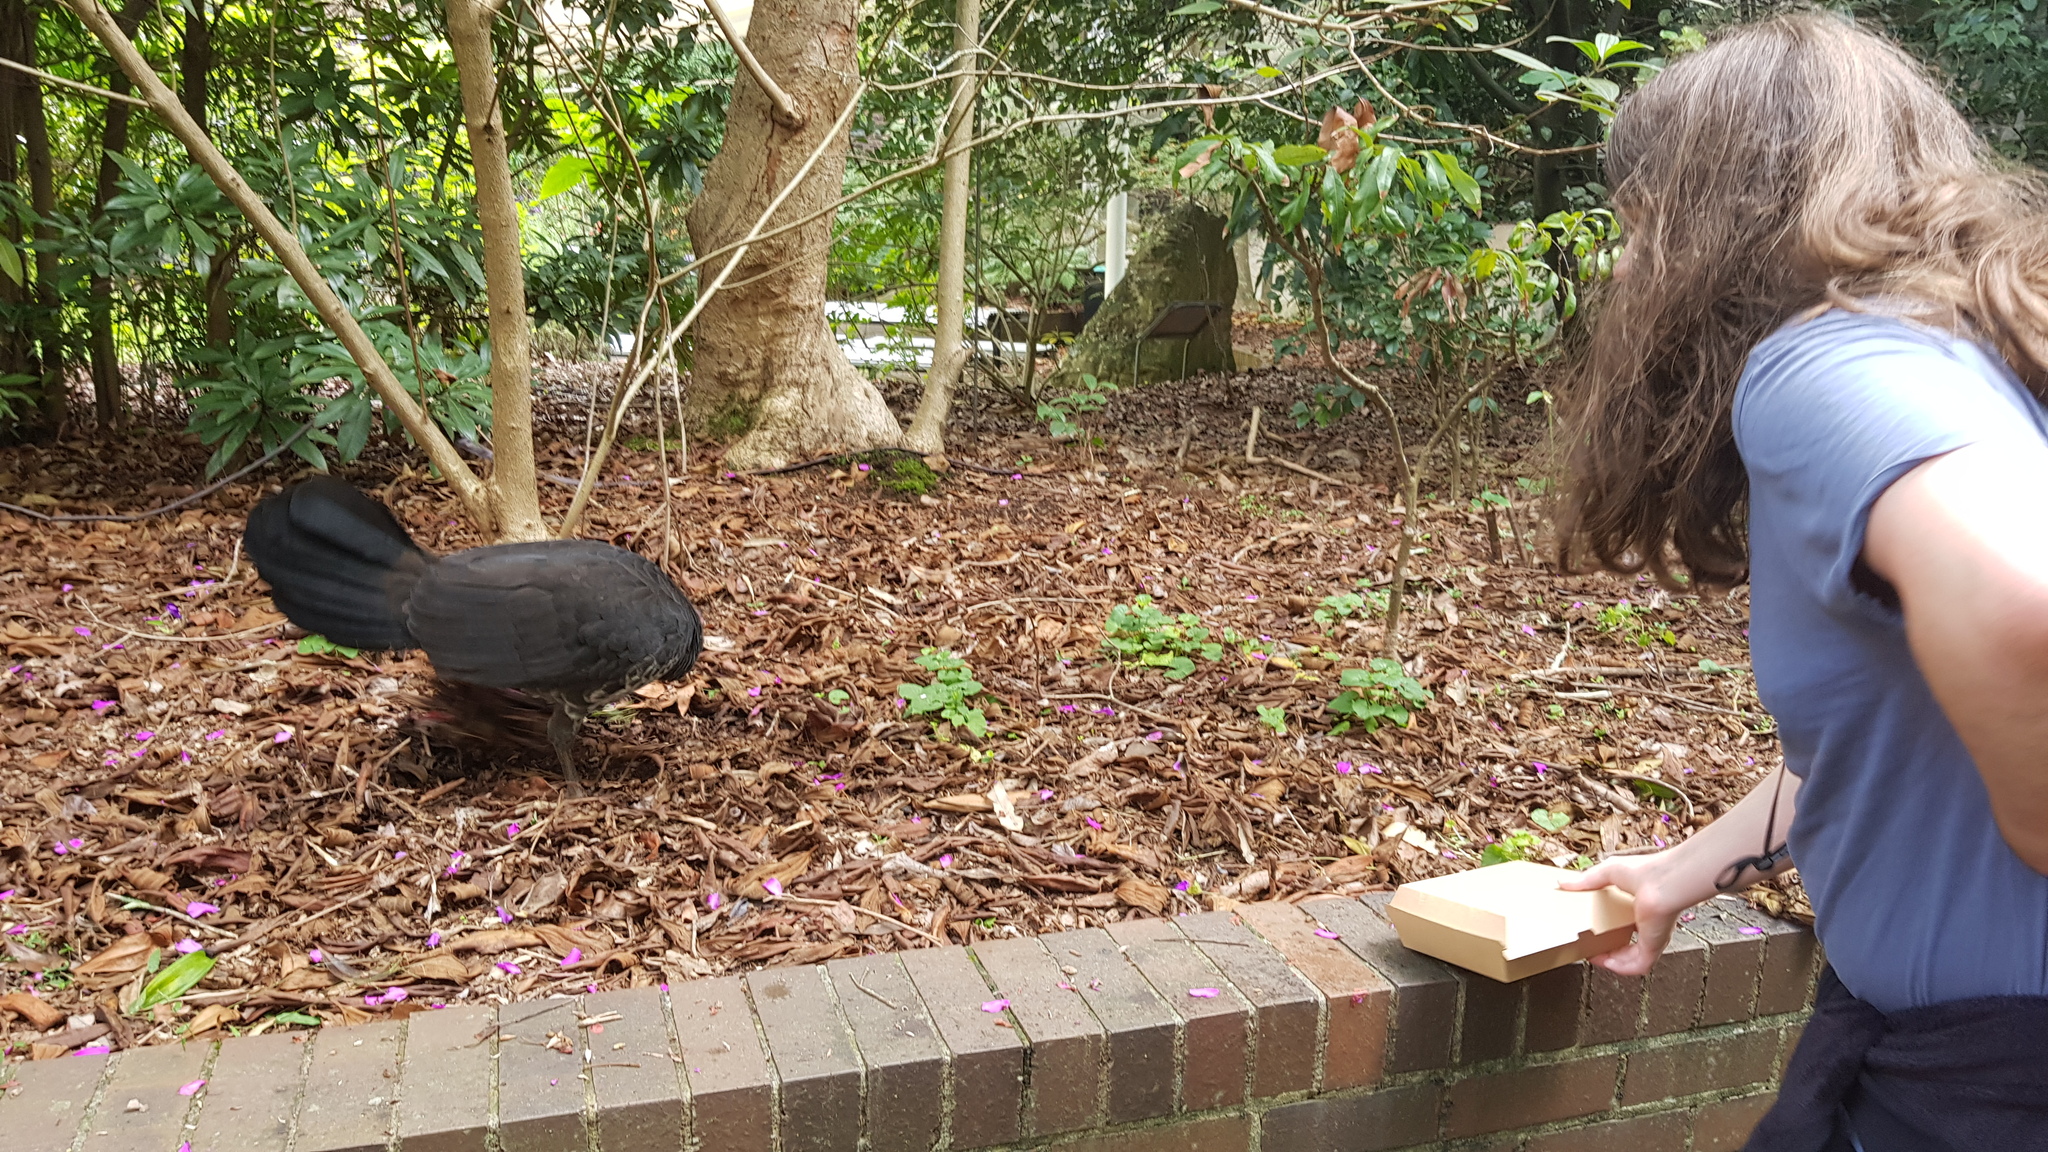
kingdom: Animalia
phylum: Chordata
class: Aves
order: Galliformes
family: Megapodiidae
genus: Alectura
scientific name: Alectura lathami
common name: Australian brushturkey
